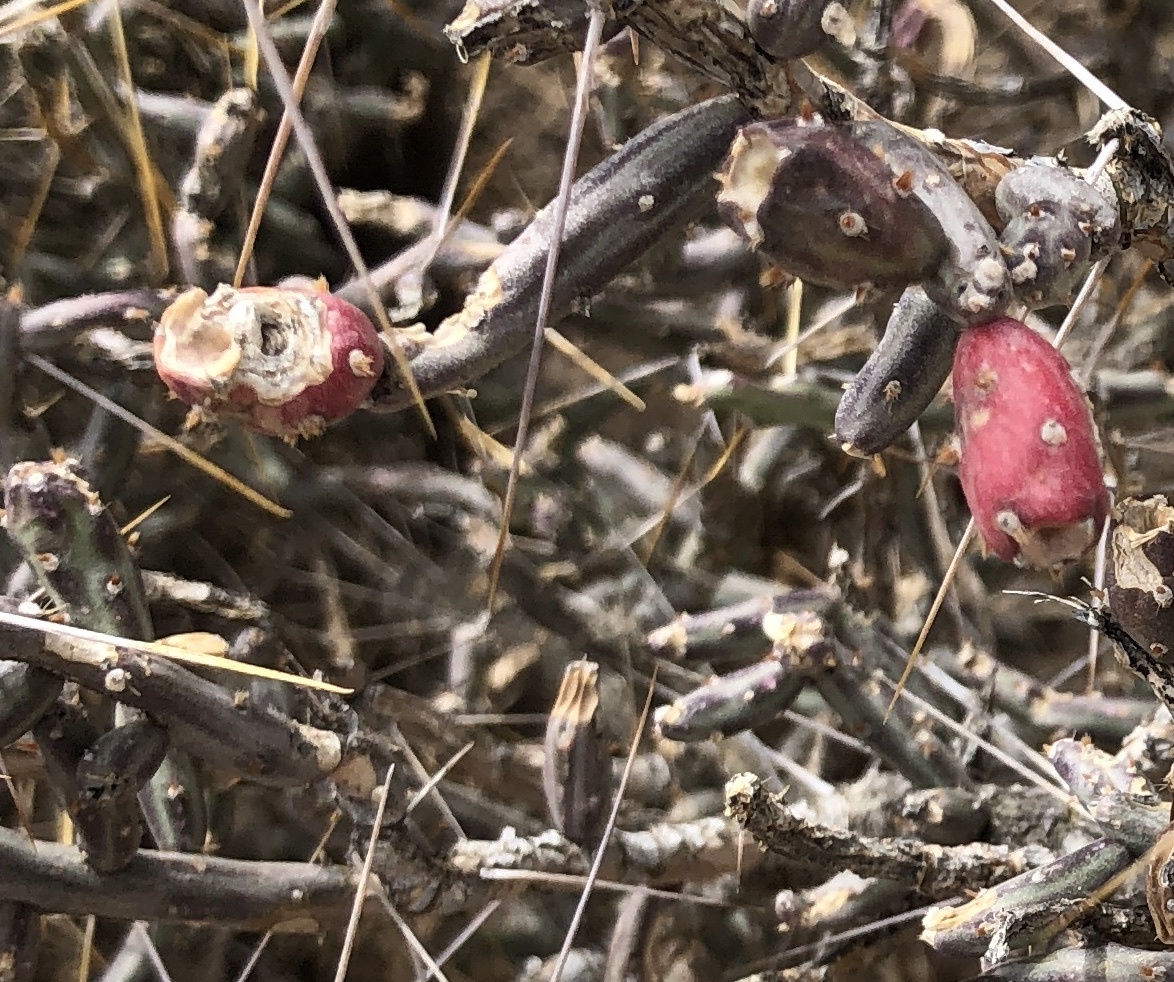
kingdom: Plantae
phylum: Tracheophyta
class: Magnoliopsida
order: Caryophyllales
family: Cactaceae
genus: Cylindropuntia
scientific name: Cylindropuntia leptocaulis
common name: Christmas cactus
